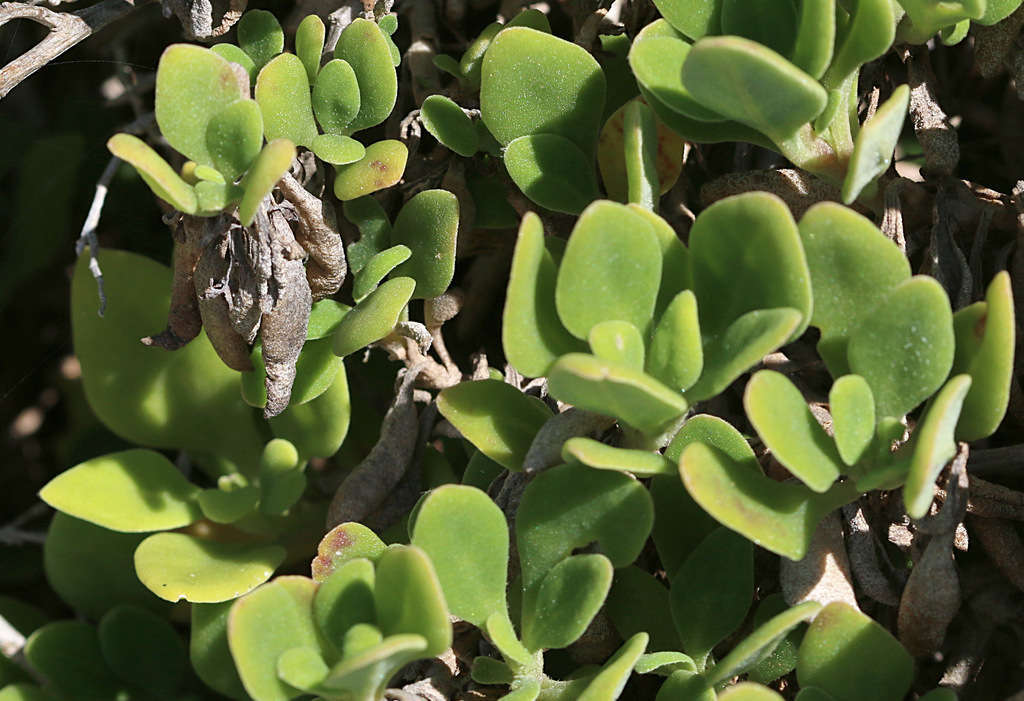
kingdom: Plantae
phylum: Tracheophyta
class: Magnoliopsida
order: Caryophyllales
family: Aizoaceae
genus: Tetragonia
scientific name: Tetragonia implexicoma
